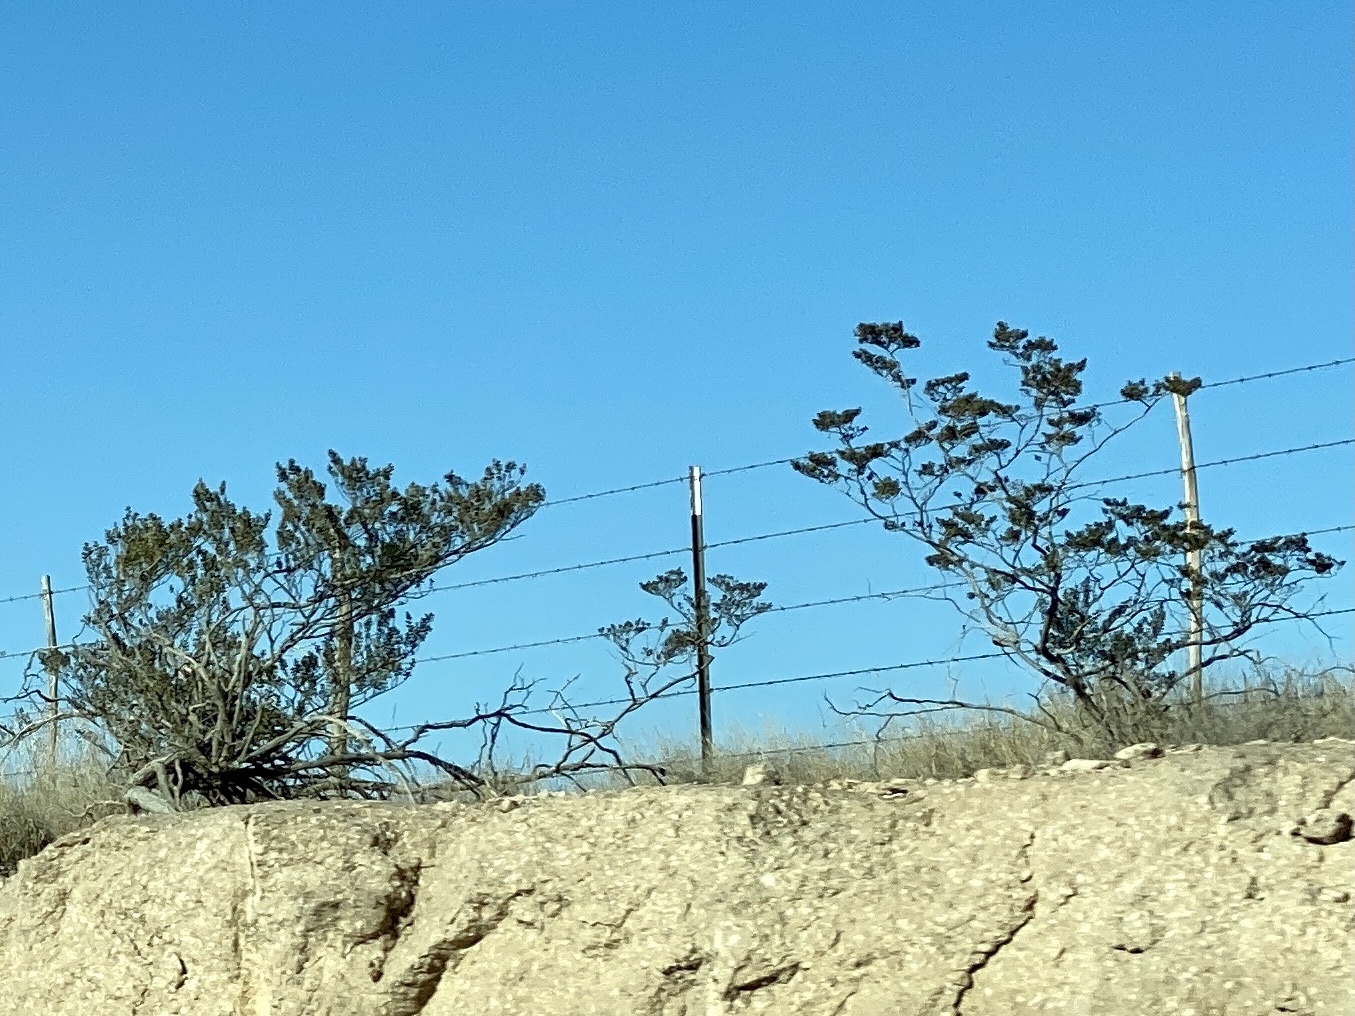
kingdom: Plantae
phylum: Tracheophyta
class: Magnoliopsida
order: Zygophyllales
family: Zygophyllaceae
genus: Larrea
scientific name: Larrea tridentata
